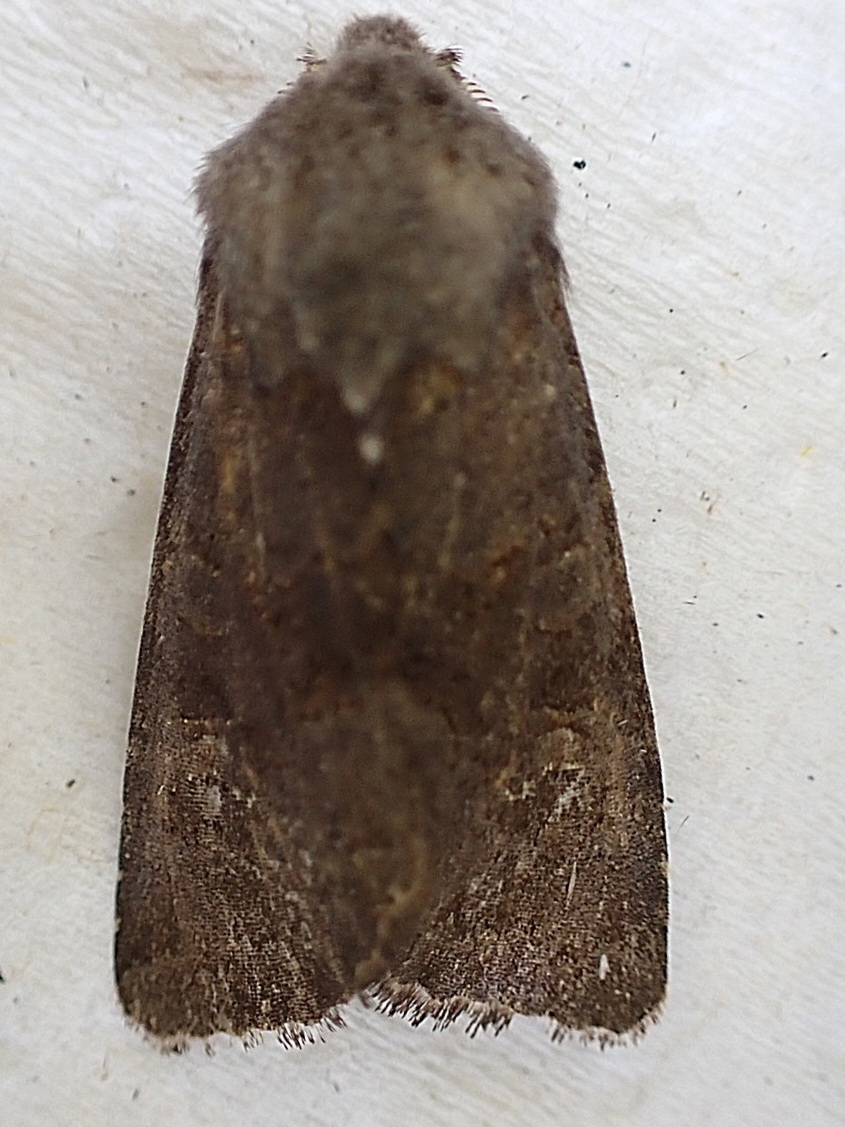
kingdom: Animalia
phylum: Arthropoda
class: Insecta
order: Lepidoptera
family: Noctuidae
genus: Aporophyla
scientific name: Aporophyla lutulenta
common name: Deep-brown dart
